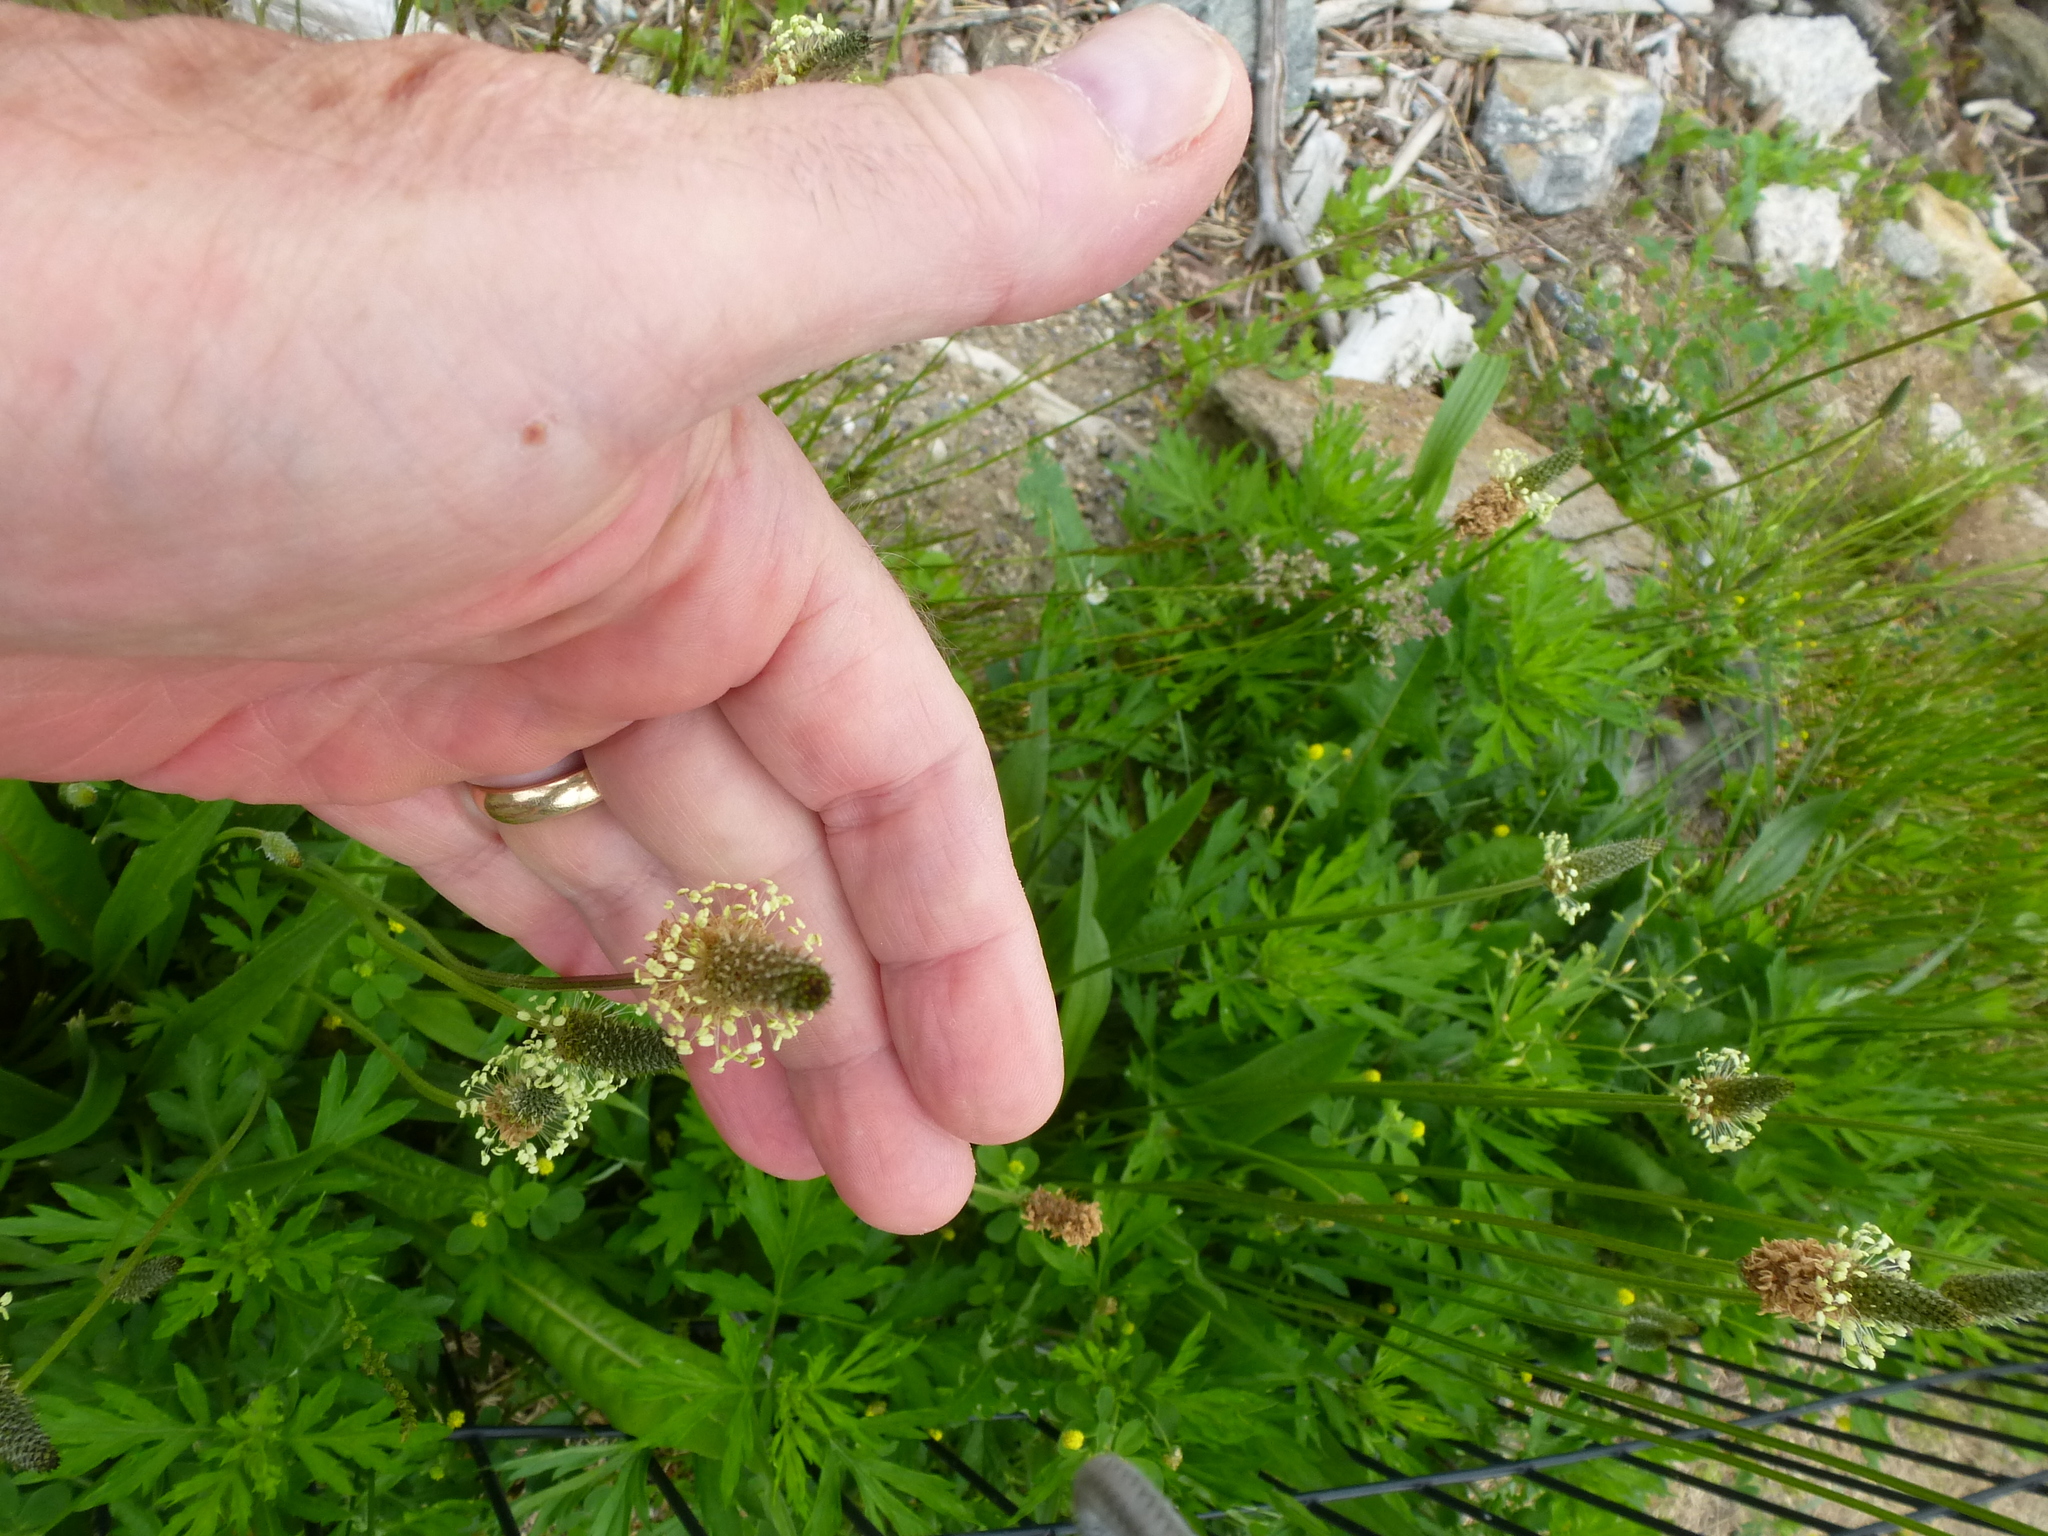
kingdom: Plantae
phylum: Tracheophyta
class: Magnoliopsida
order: Lamiales
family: Plantaginaceae
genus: Plantago
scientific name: Plantago lanceolata
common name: Ribwort plantain
